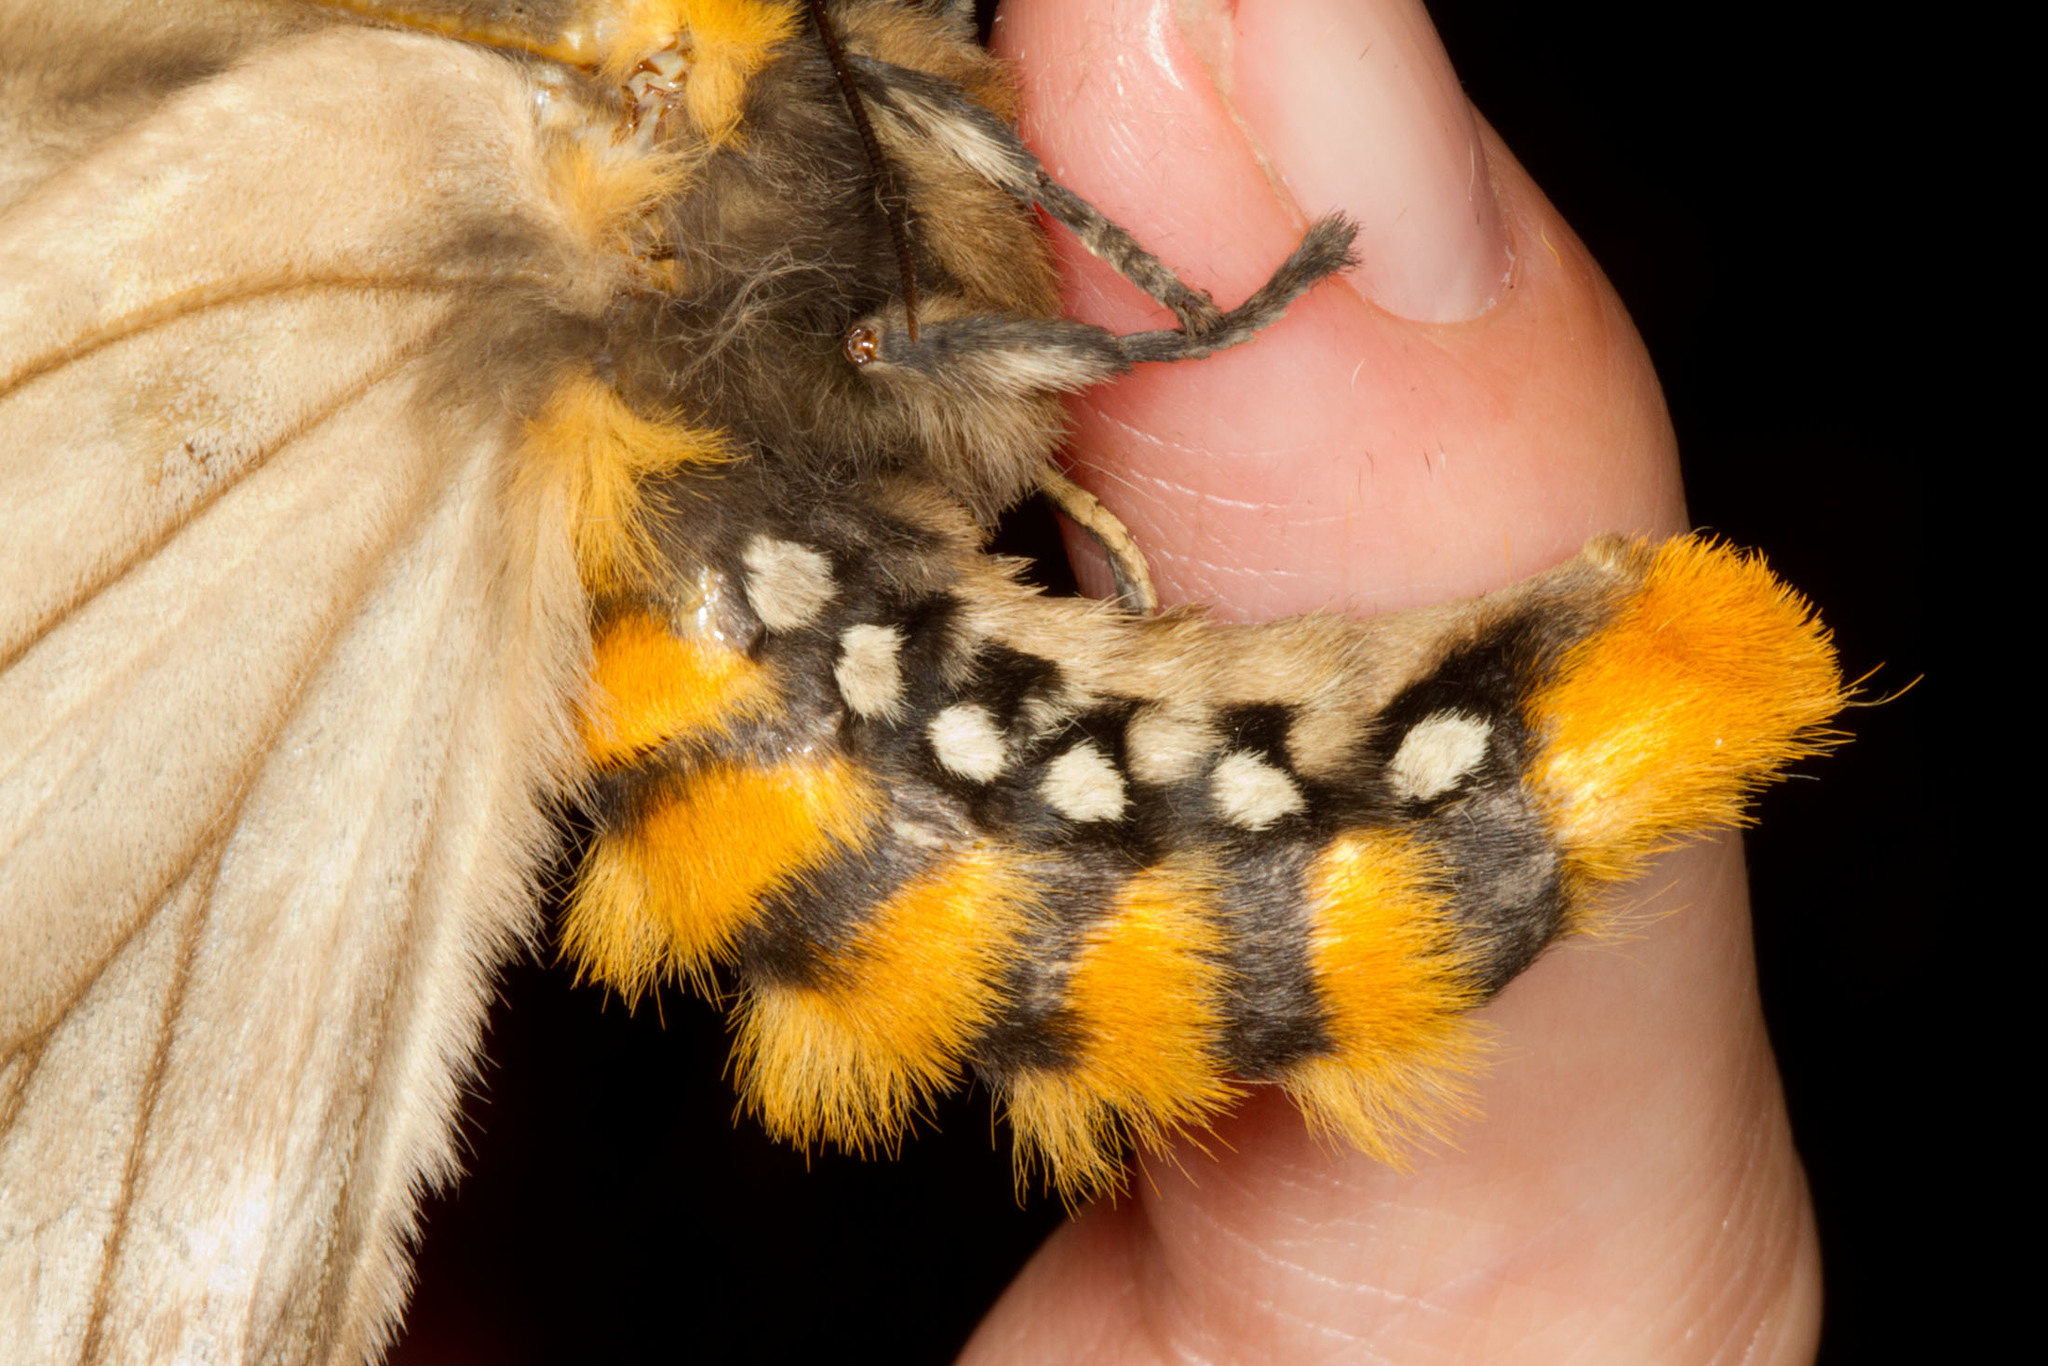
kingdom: Animalia
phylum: Arthropoda
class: Insecta
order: Lepidoptera
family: Saturniidae
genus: Pseudodirphia
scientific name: Pseudodirphia obliqua
